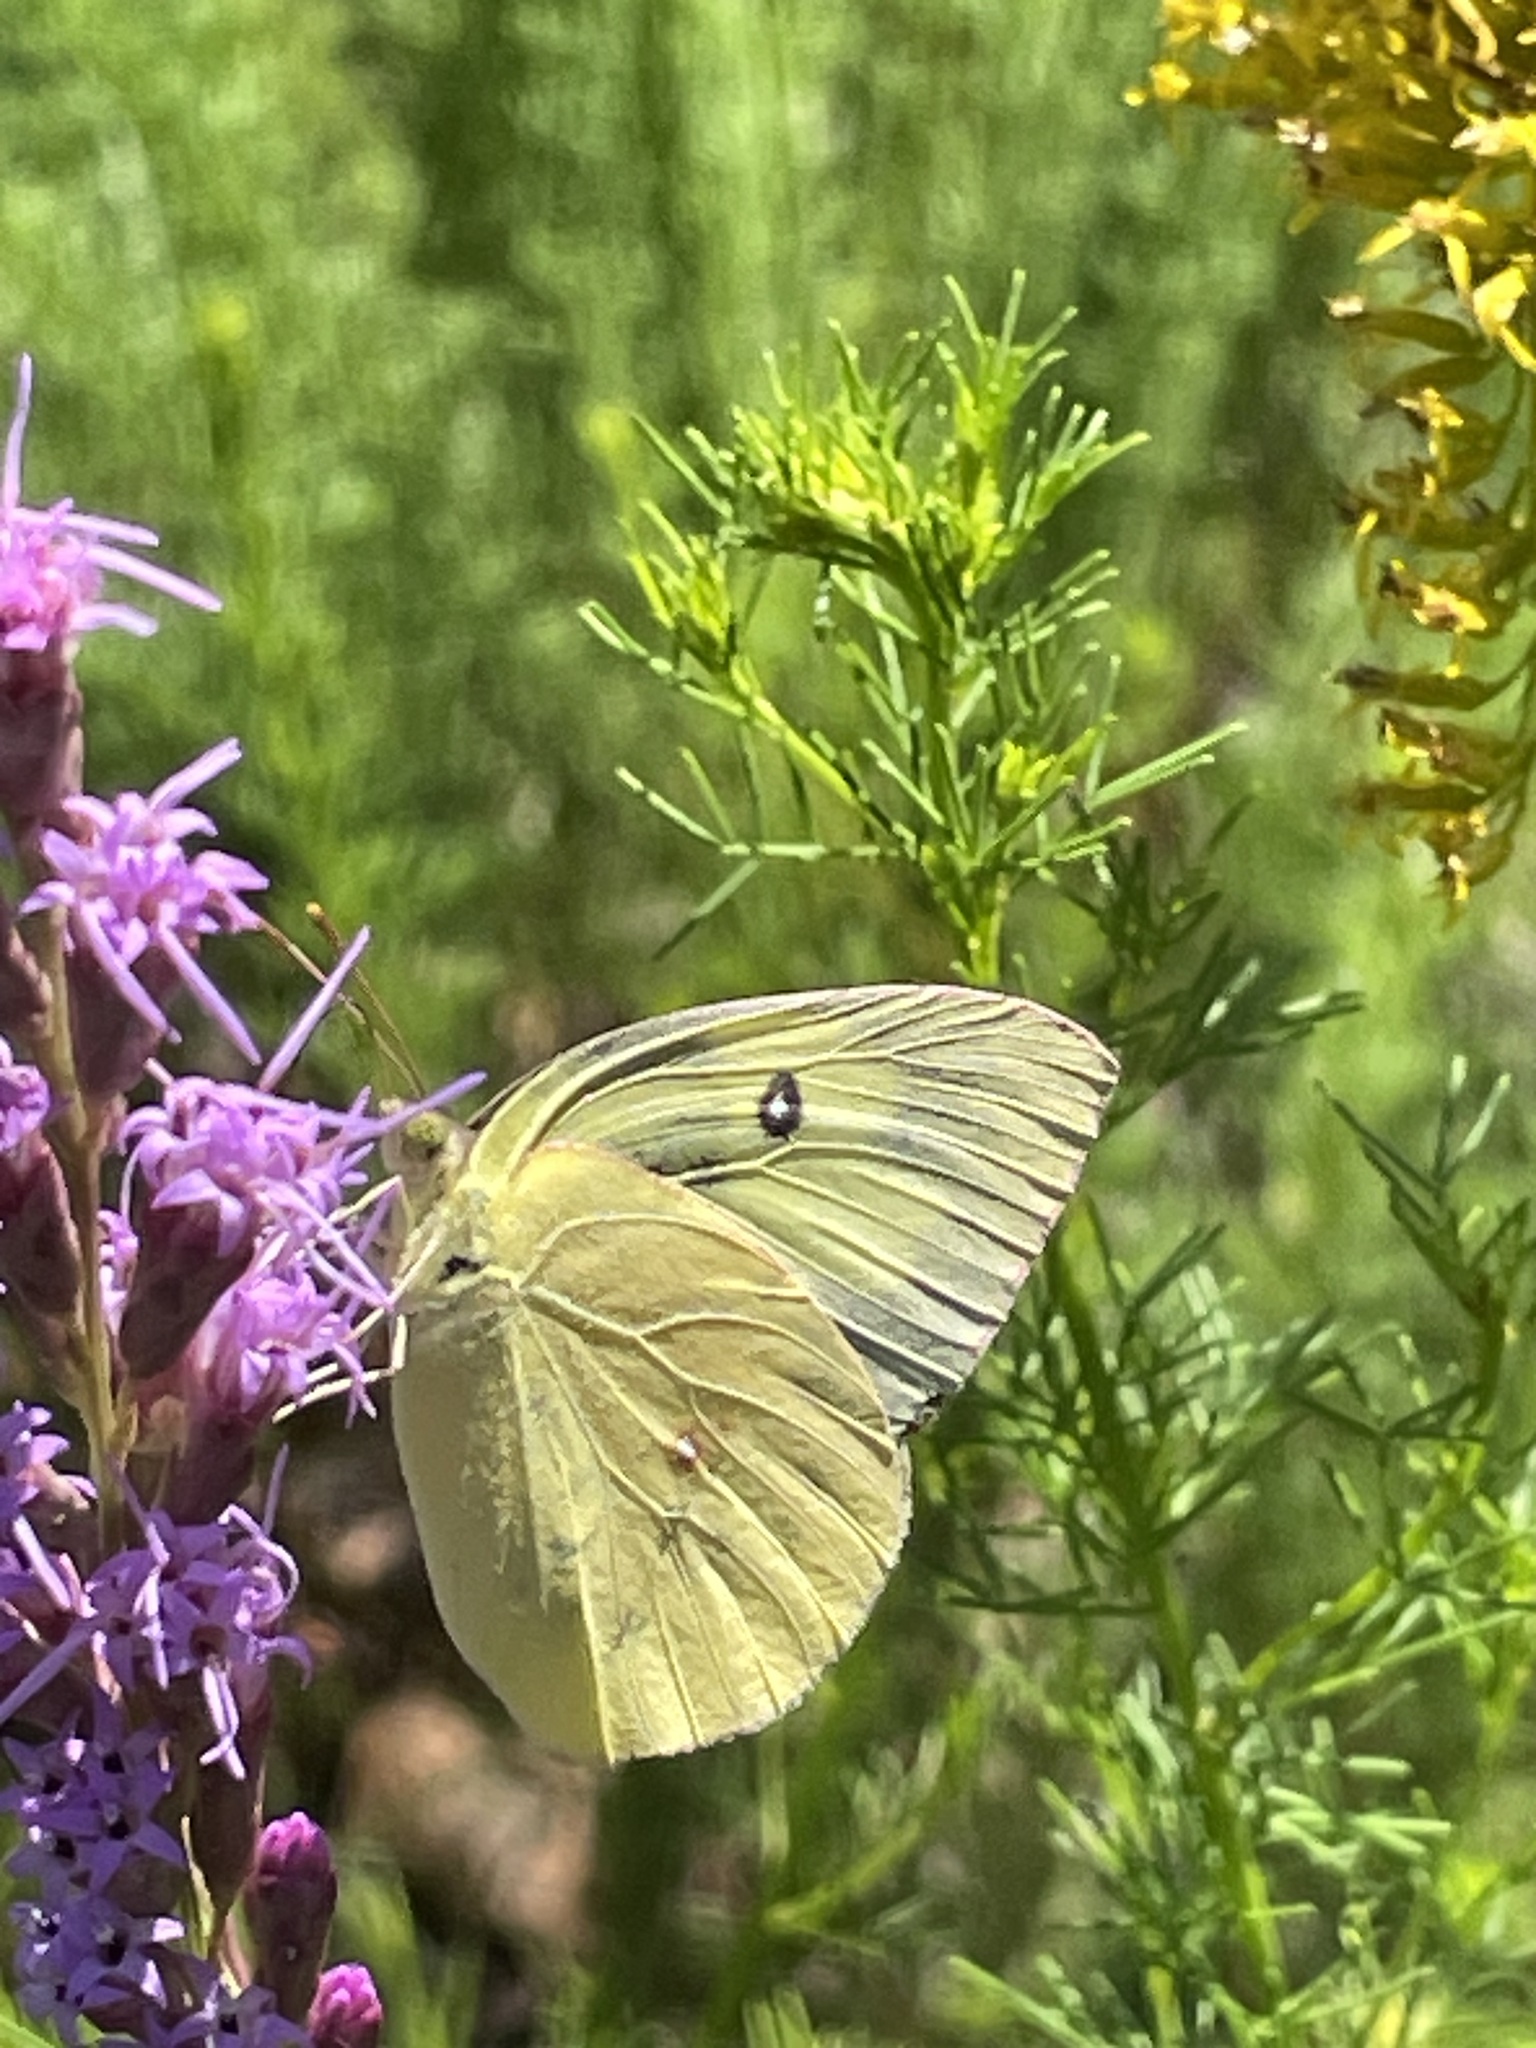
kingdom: Animalia
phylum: Arthropoda
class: Insecta
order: Lepidoptera
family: Pieridae
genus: Zerene
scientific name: Zerene cesonia
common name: Southern dogface
